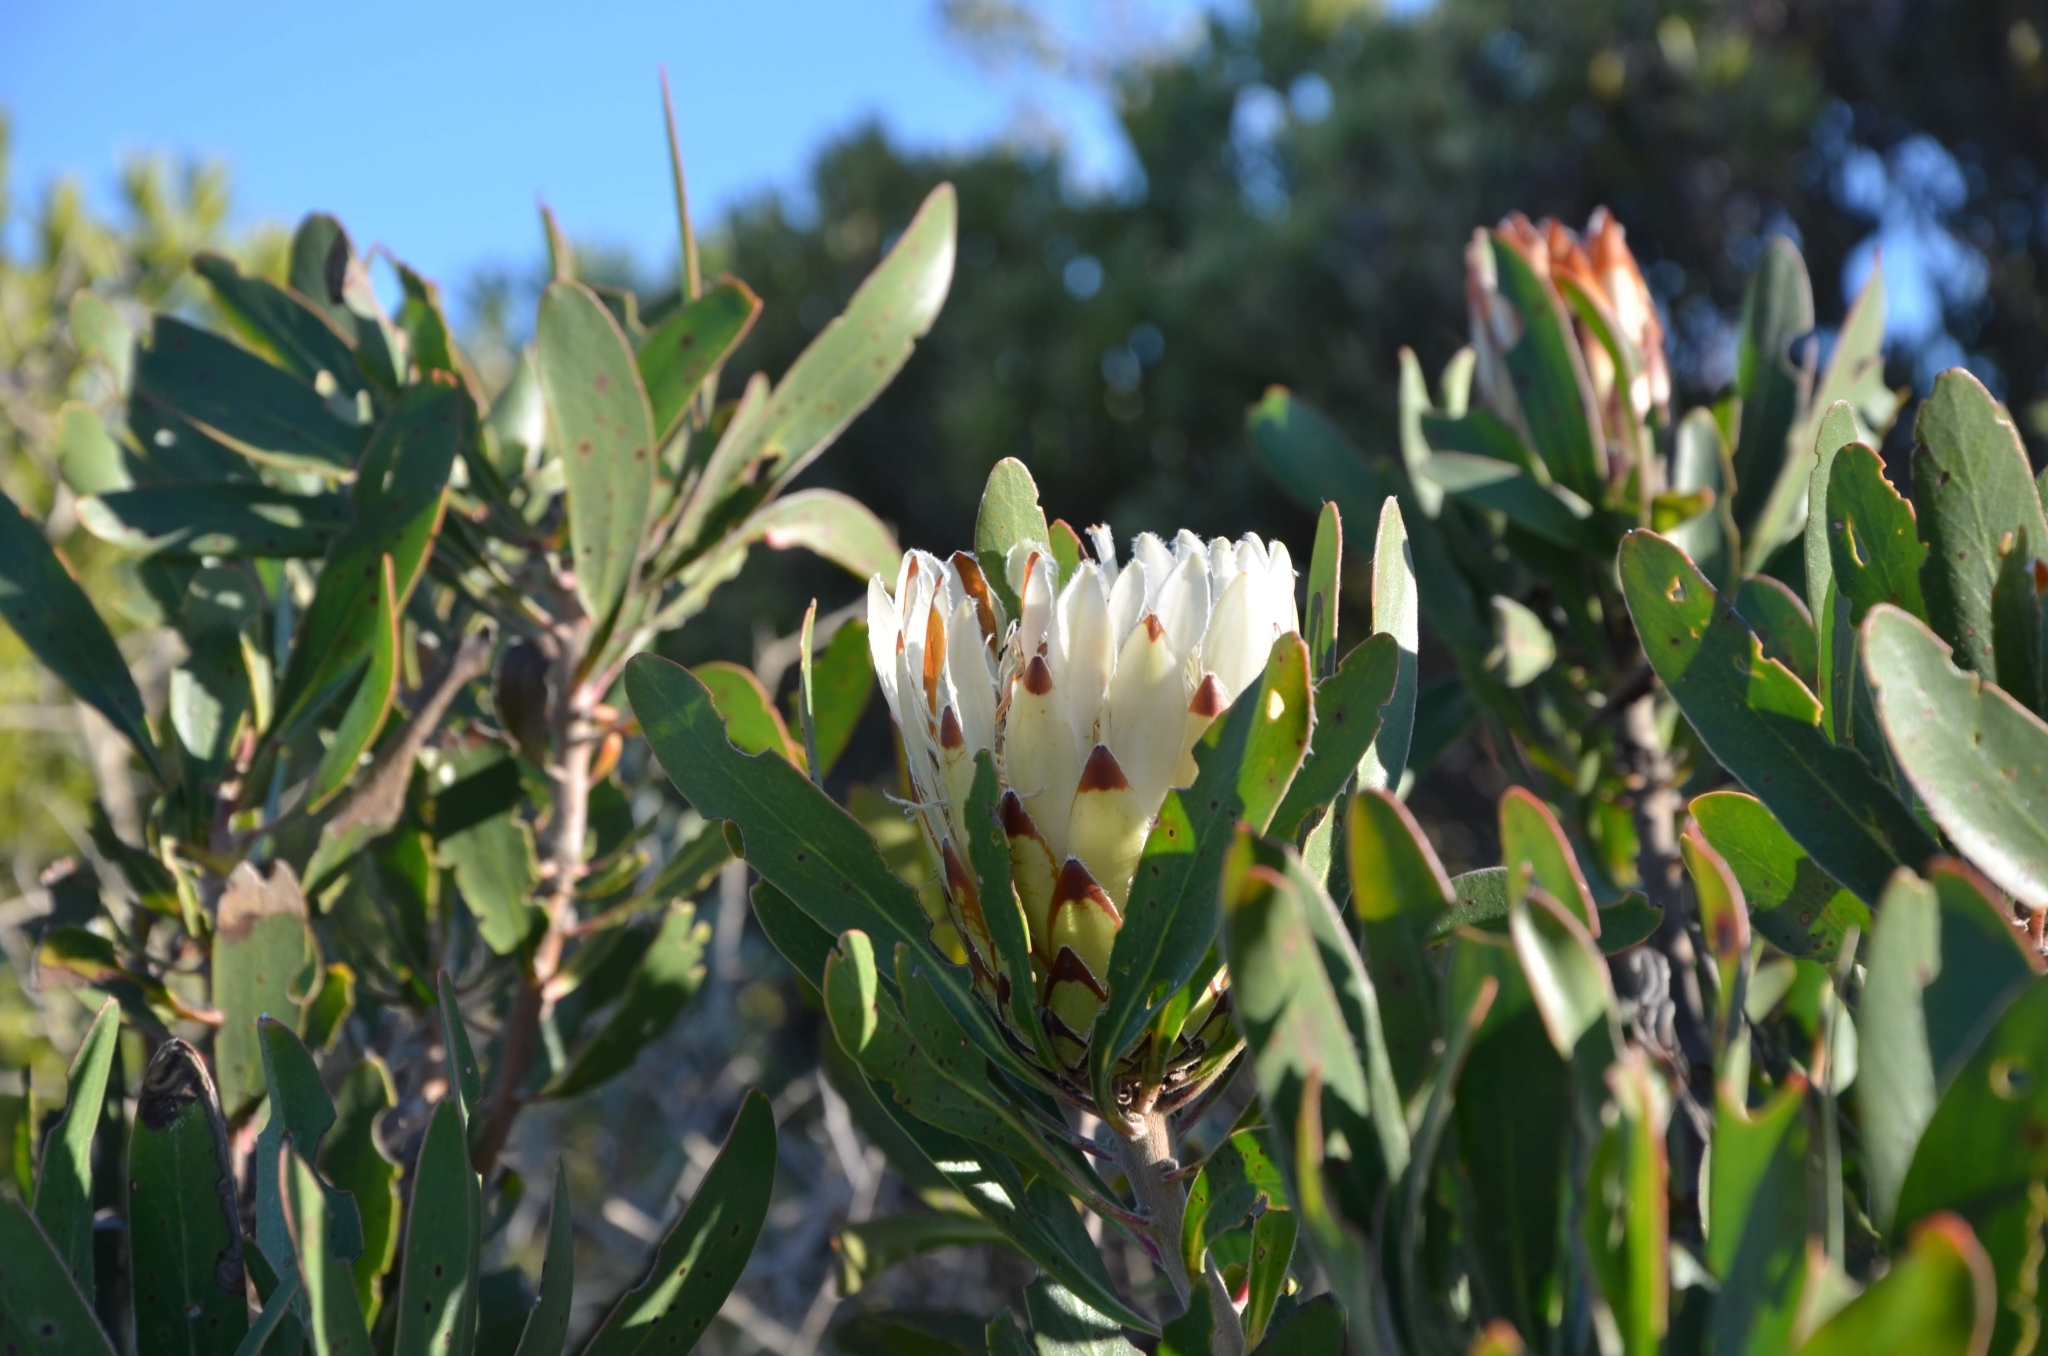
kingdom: Plantae
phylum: Tracheophyta
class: Magnoliopsida
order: Proteales
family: Proteaceae
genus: Protea
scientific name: Protea obtusifolia
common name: Bredasdorp sugarbush
